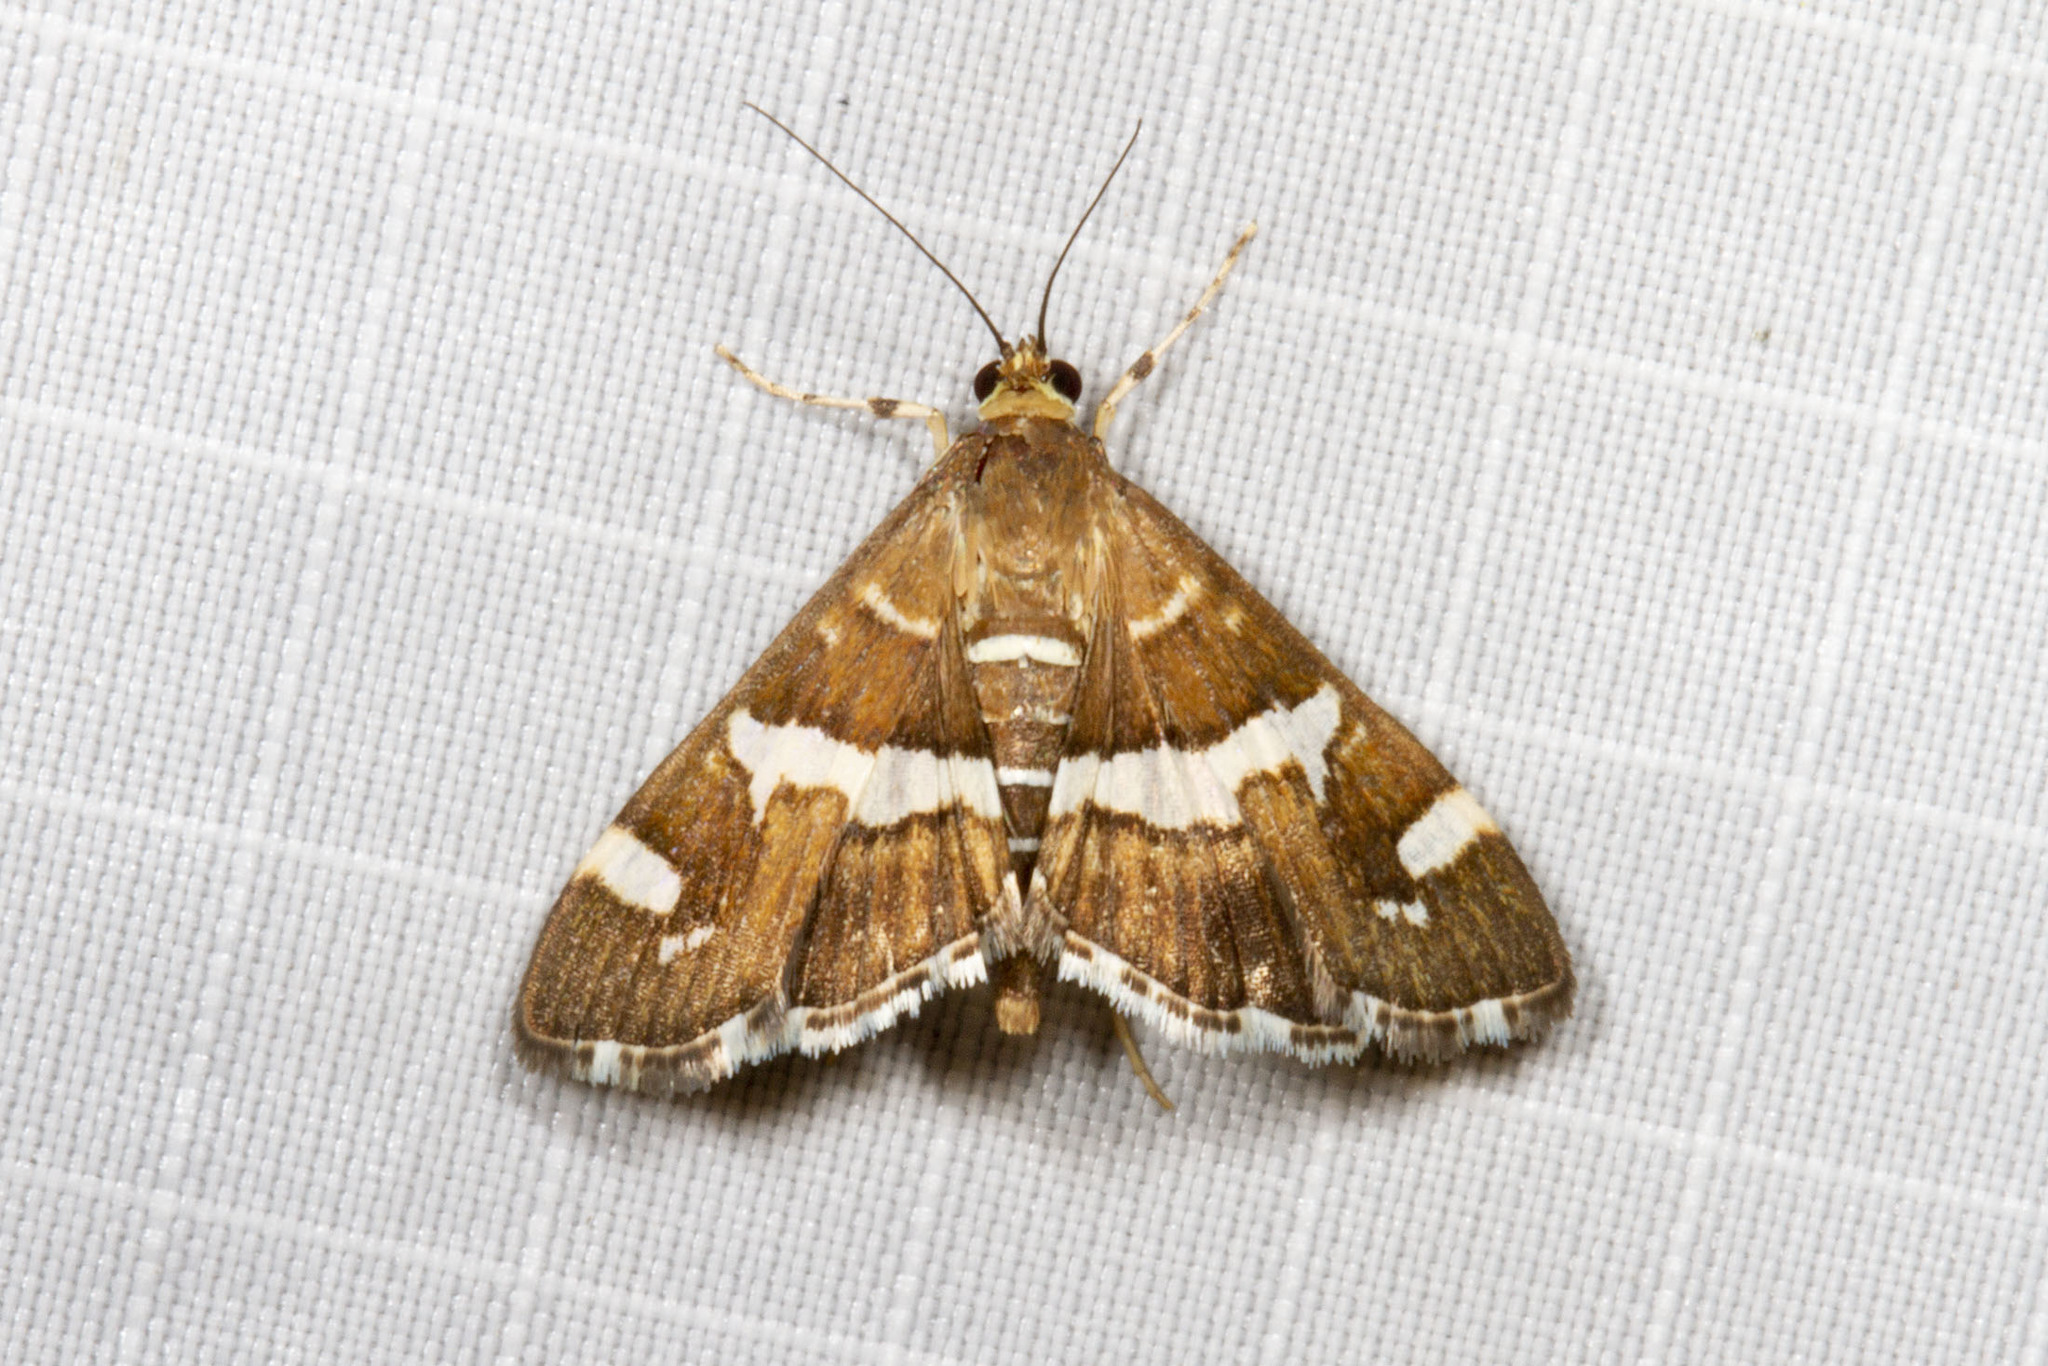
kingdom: Animalia
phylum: Arthropoda
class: Insecta
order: Lepidoptera
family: Crambidae
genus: Spoladea
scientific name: Spoladea recurvalis
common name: Beet webworm moth
